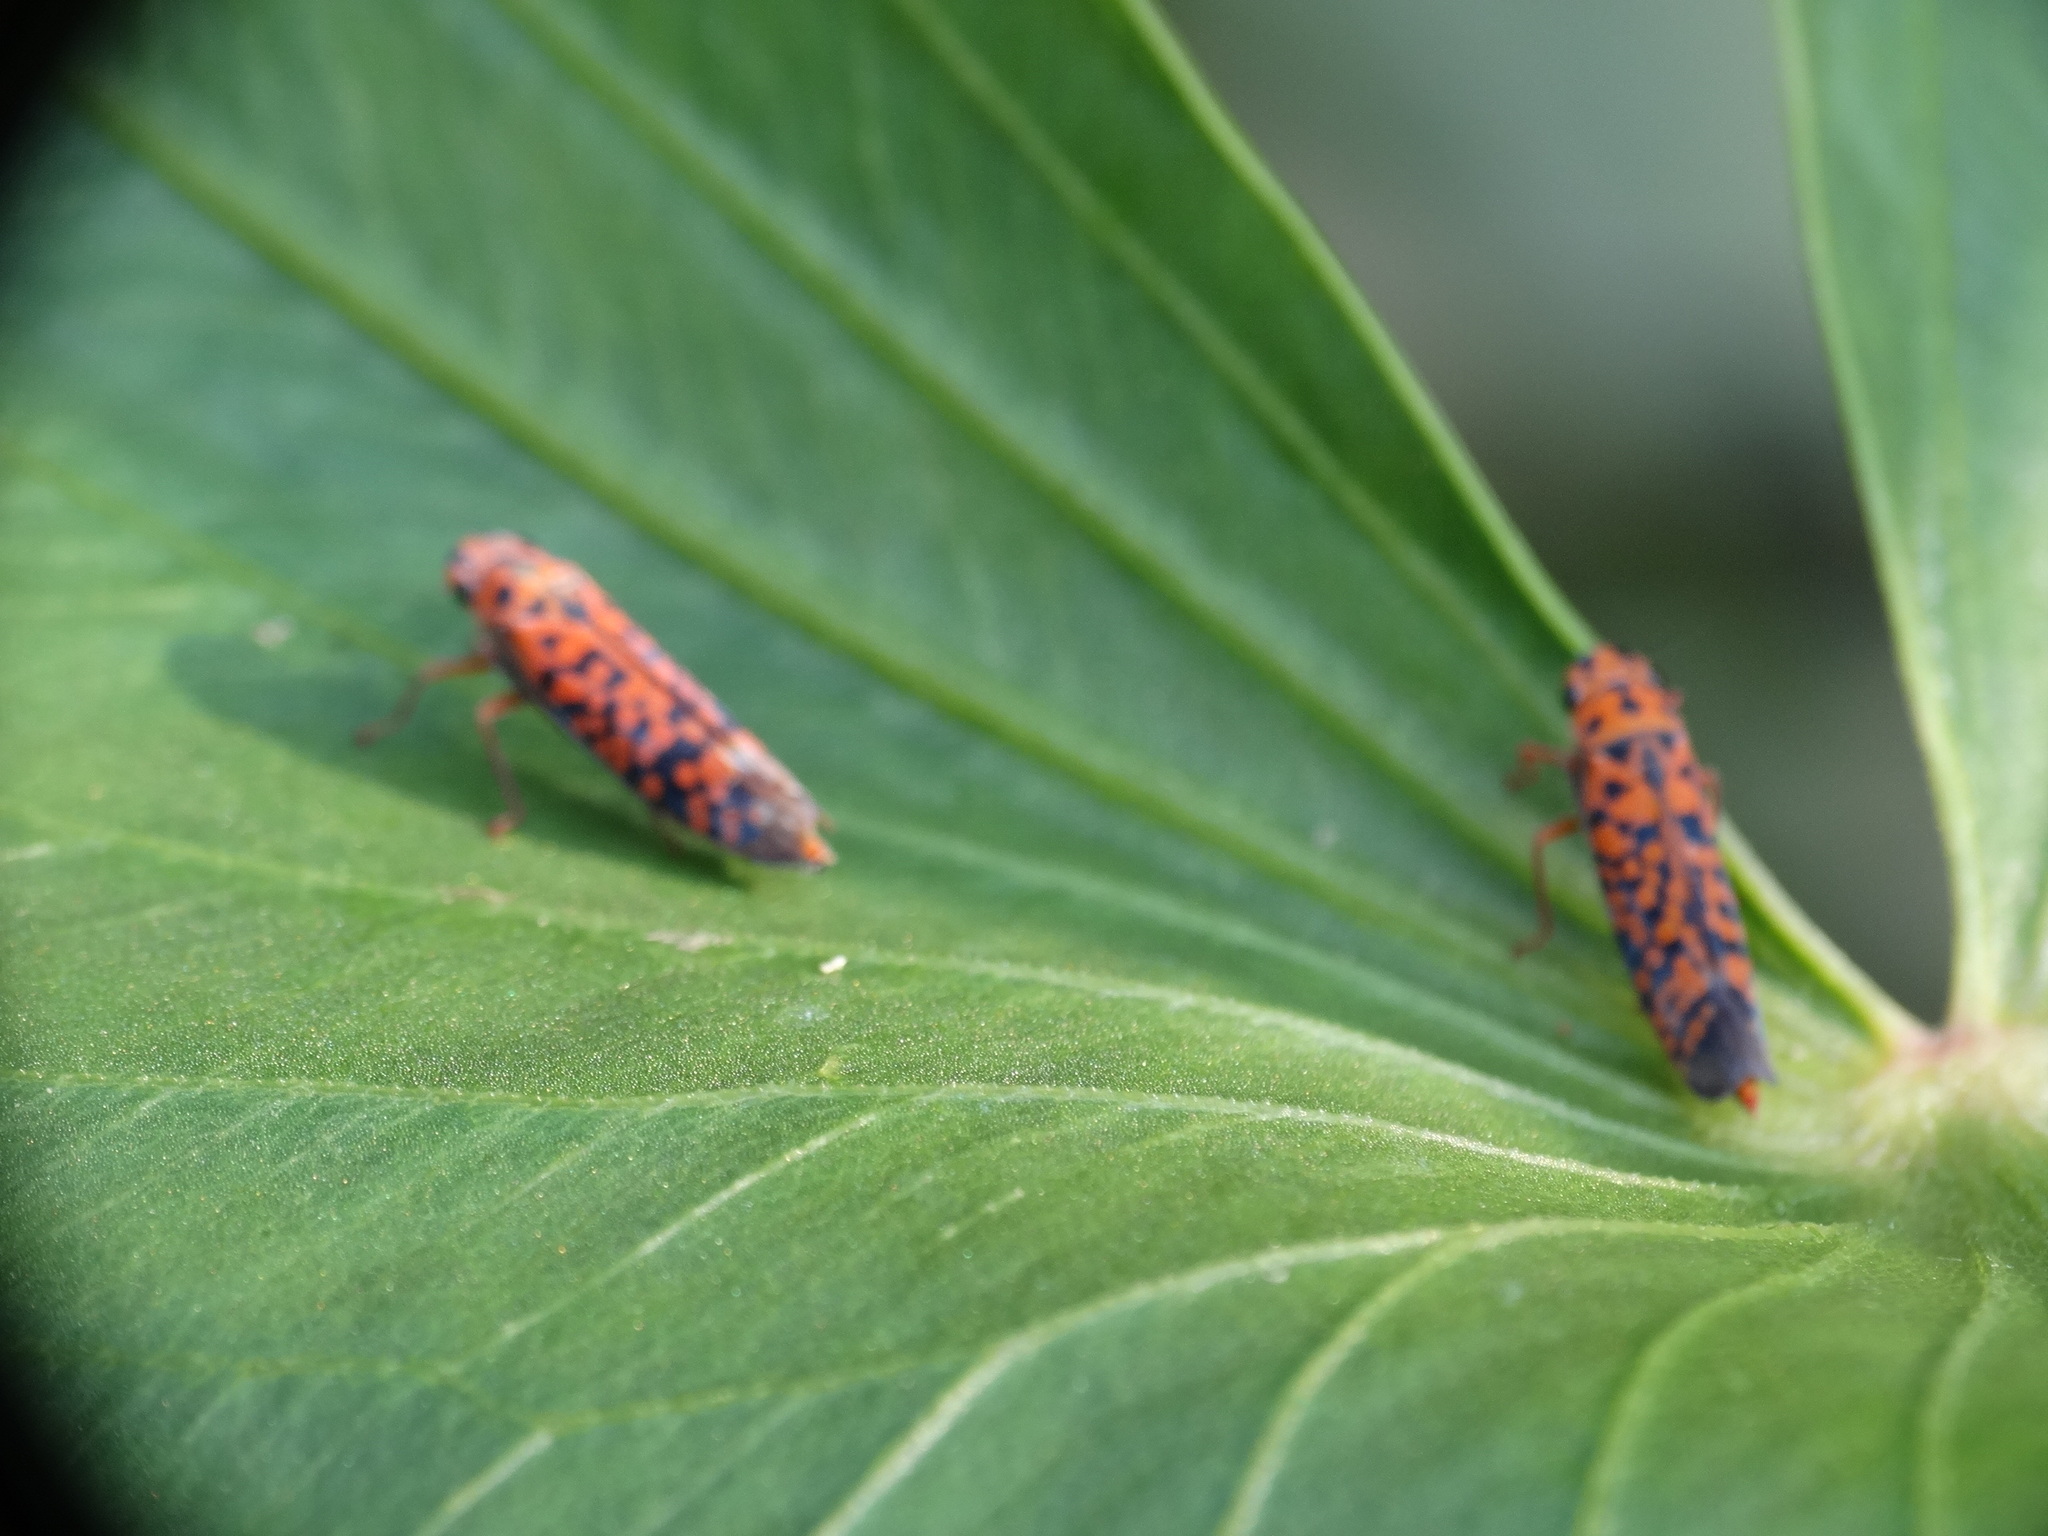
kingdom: Animalia
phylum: Arthropoda
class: Insecta
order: Hemiptera
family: Cicadellidae
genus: Pawiloma
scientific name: Pawiloma victima
